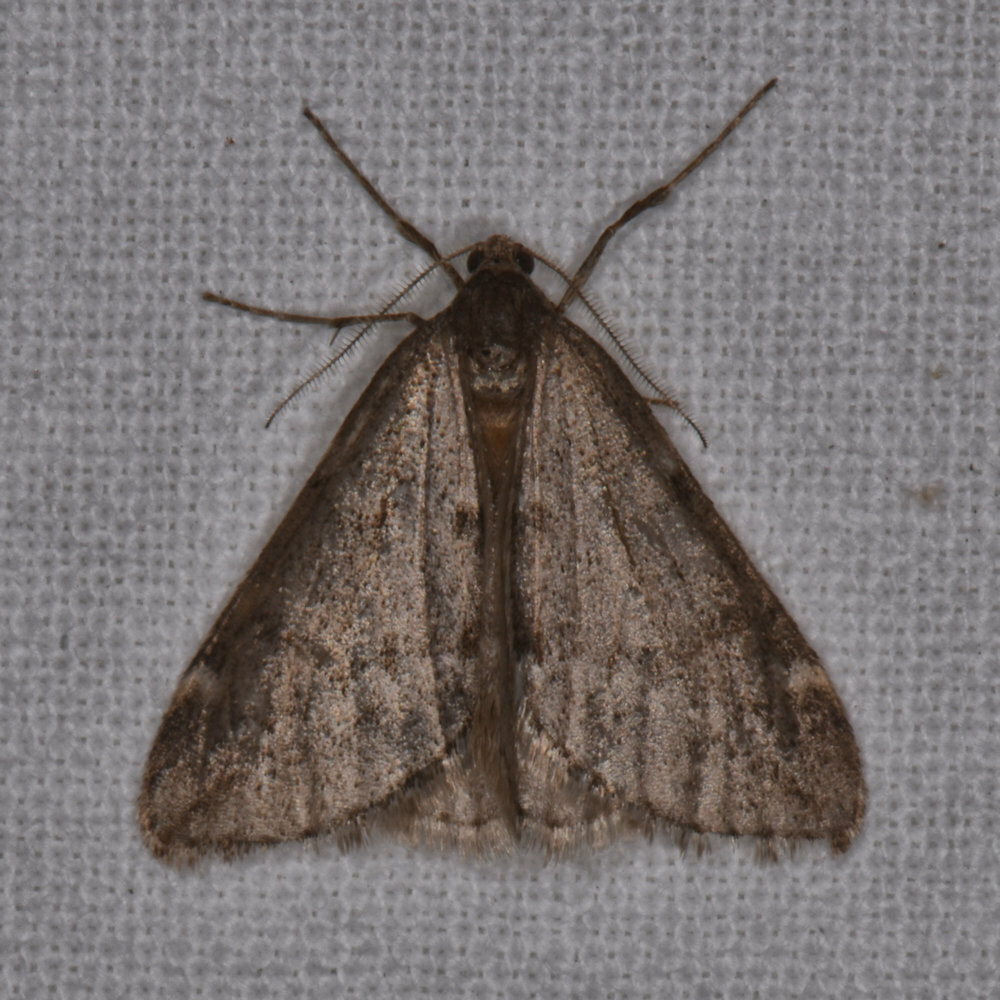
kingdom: Animalia
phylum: Arthropoda
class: Insecta
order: Lepidoptera
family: Geometridae
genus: Alsophila
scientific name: Alsophila pometaria
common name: Fall cankerworm
